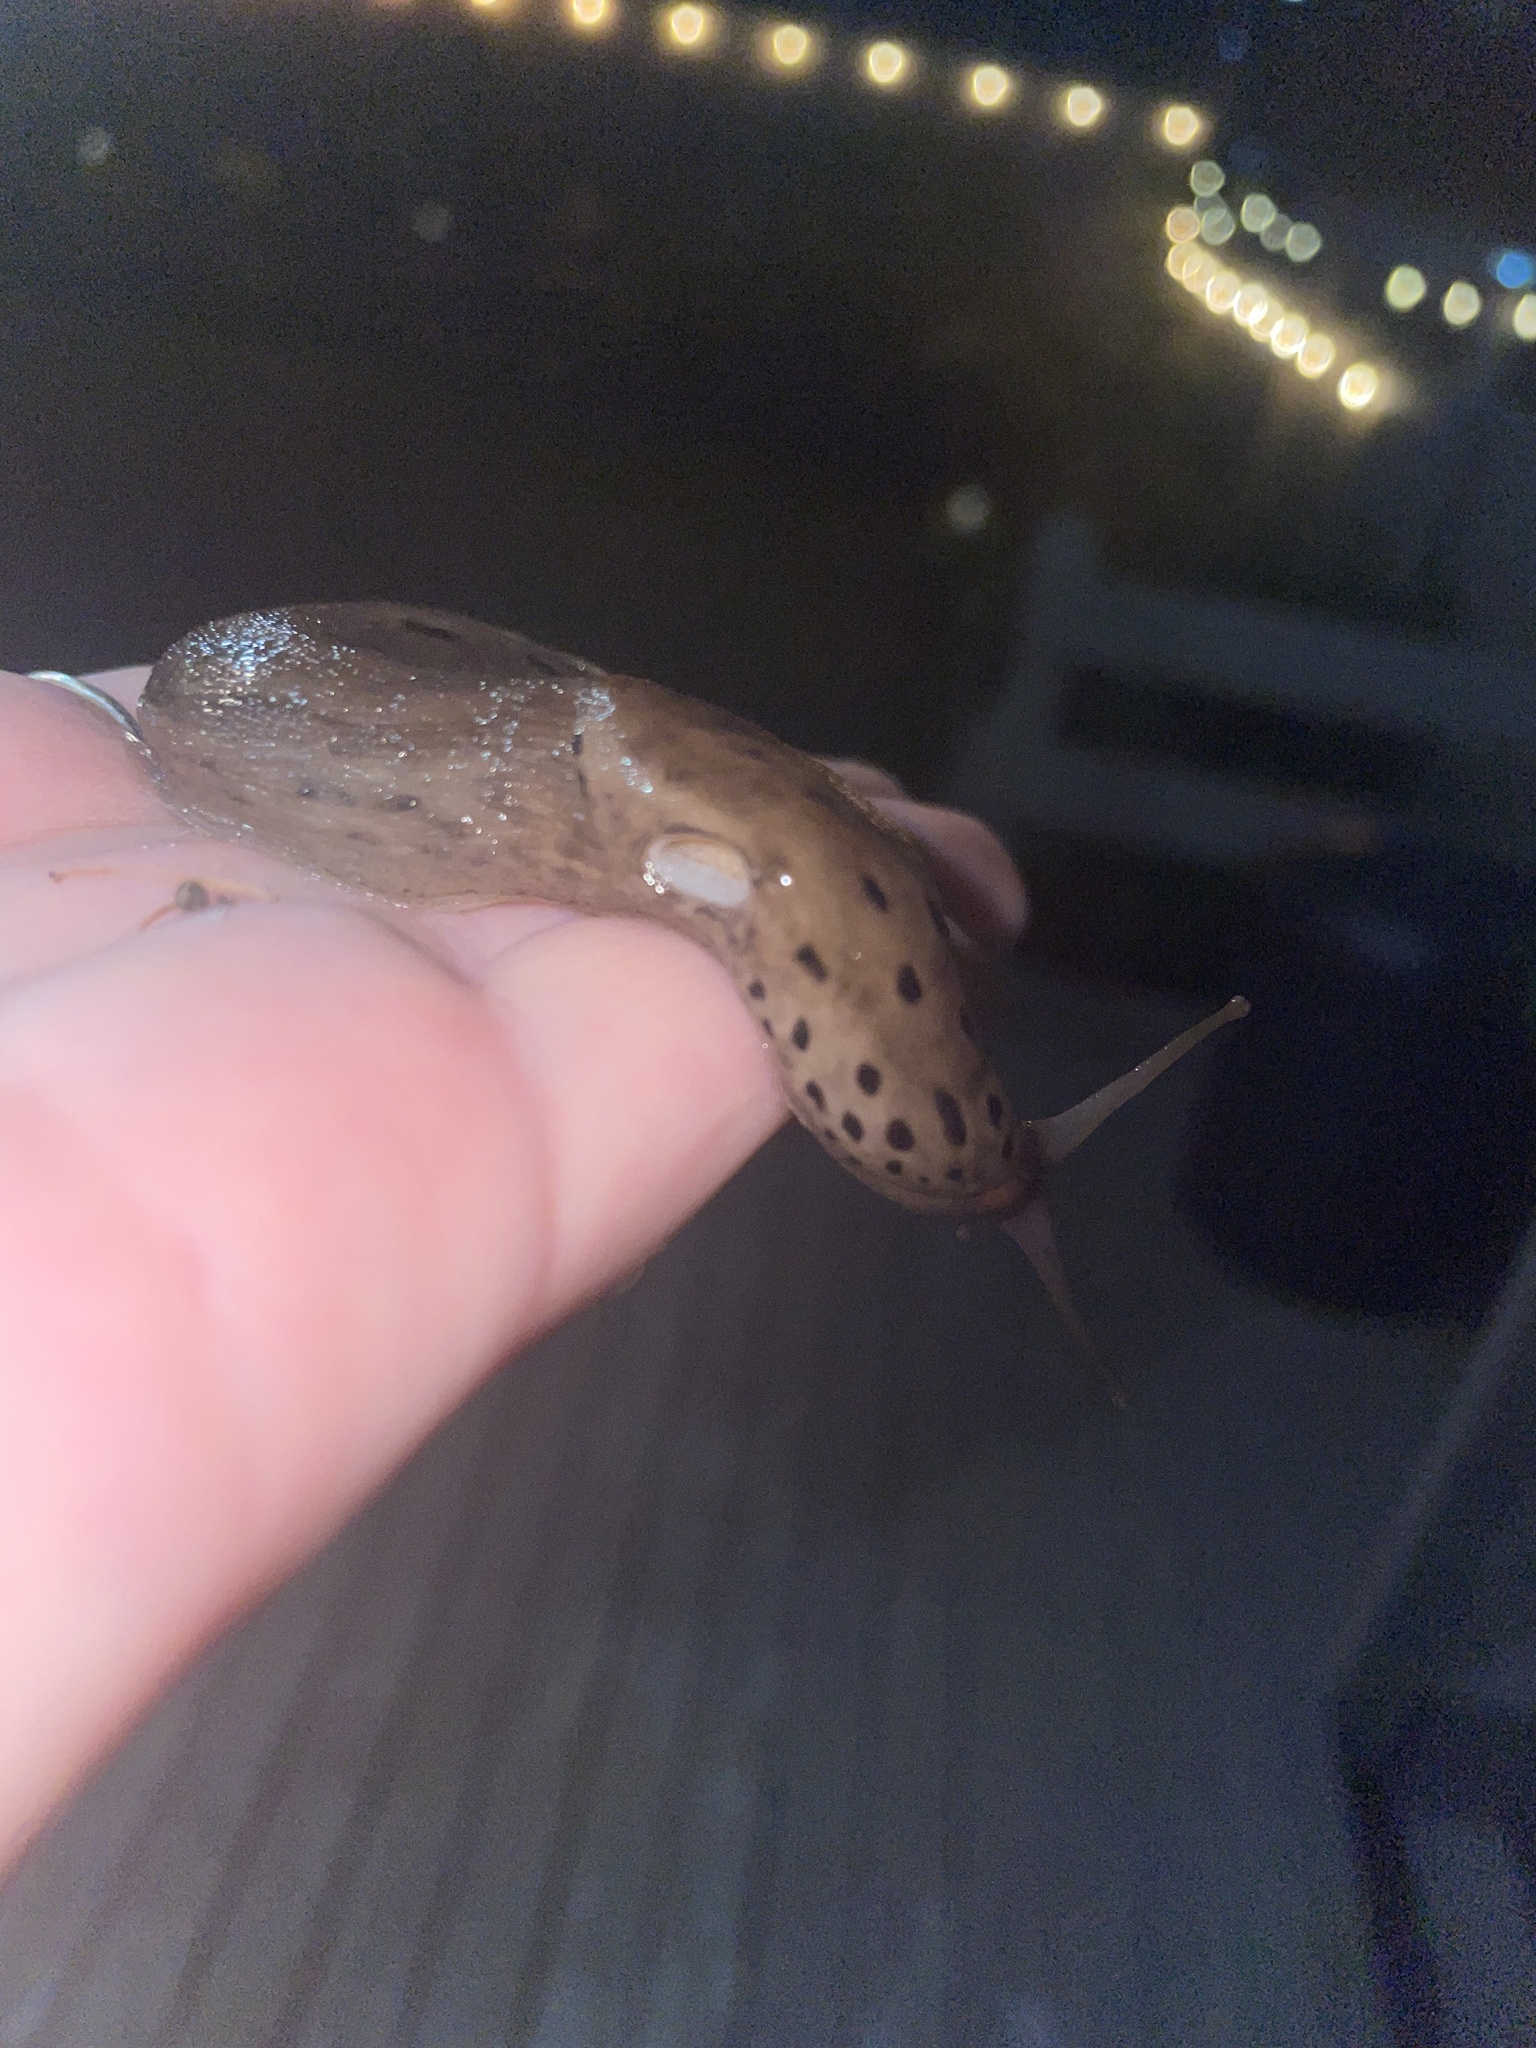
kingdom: Animalia
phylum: Mollusca
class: Gastropoda
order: Stylommatophora
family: Limacidae
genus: Limax
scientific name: Limax maximus
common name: Great grey slug
